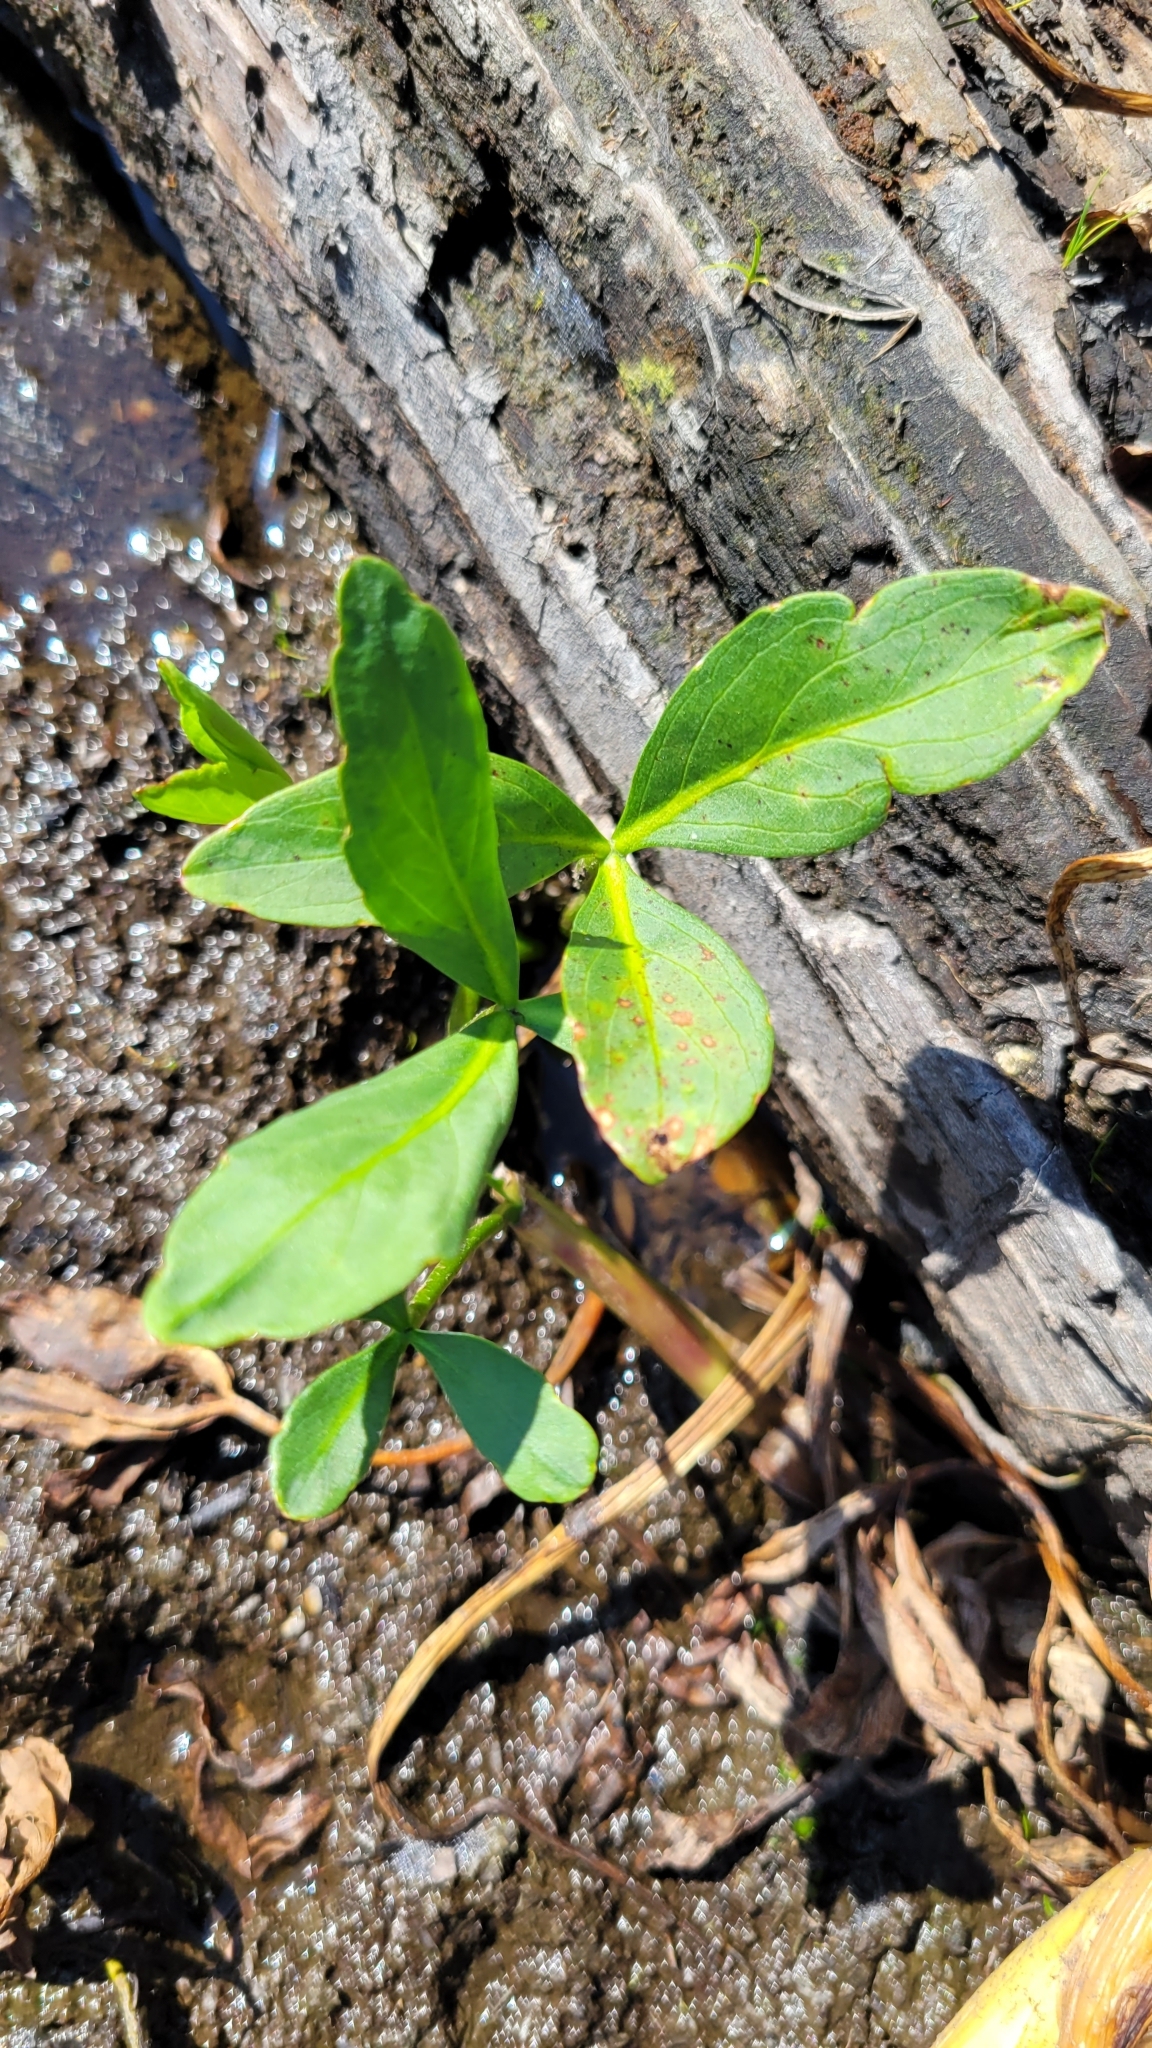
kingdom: Plantae
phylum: Tracheophyta
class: Magnoliopsida
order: Asterales
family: Menyanthaceae
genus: Menyanthes
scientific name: Menyanthes trifoliata
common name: Bogbean
